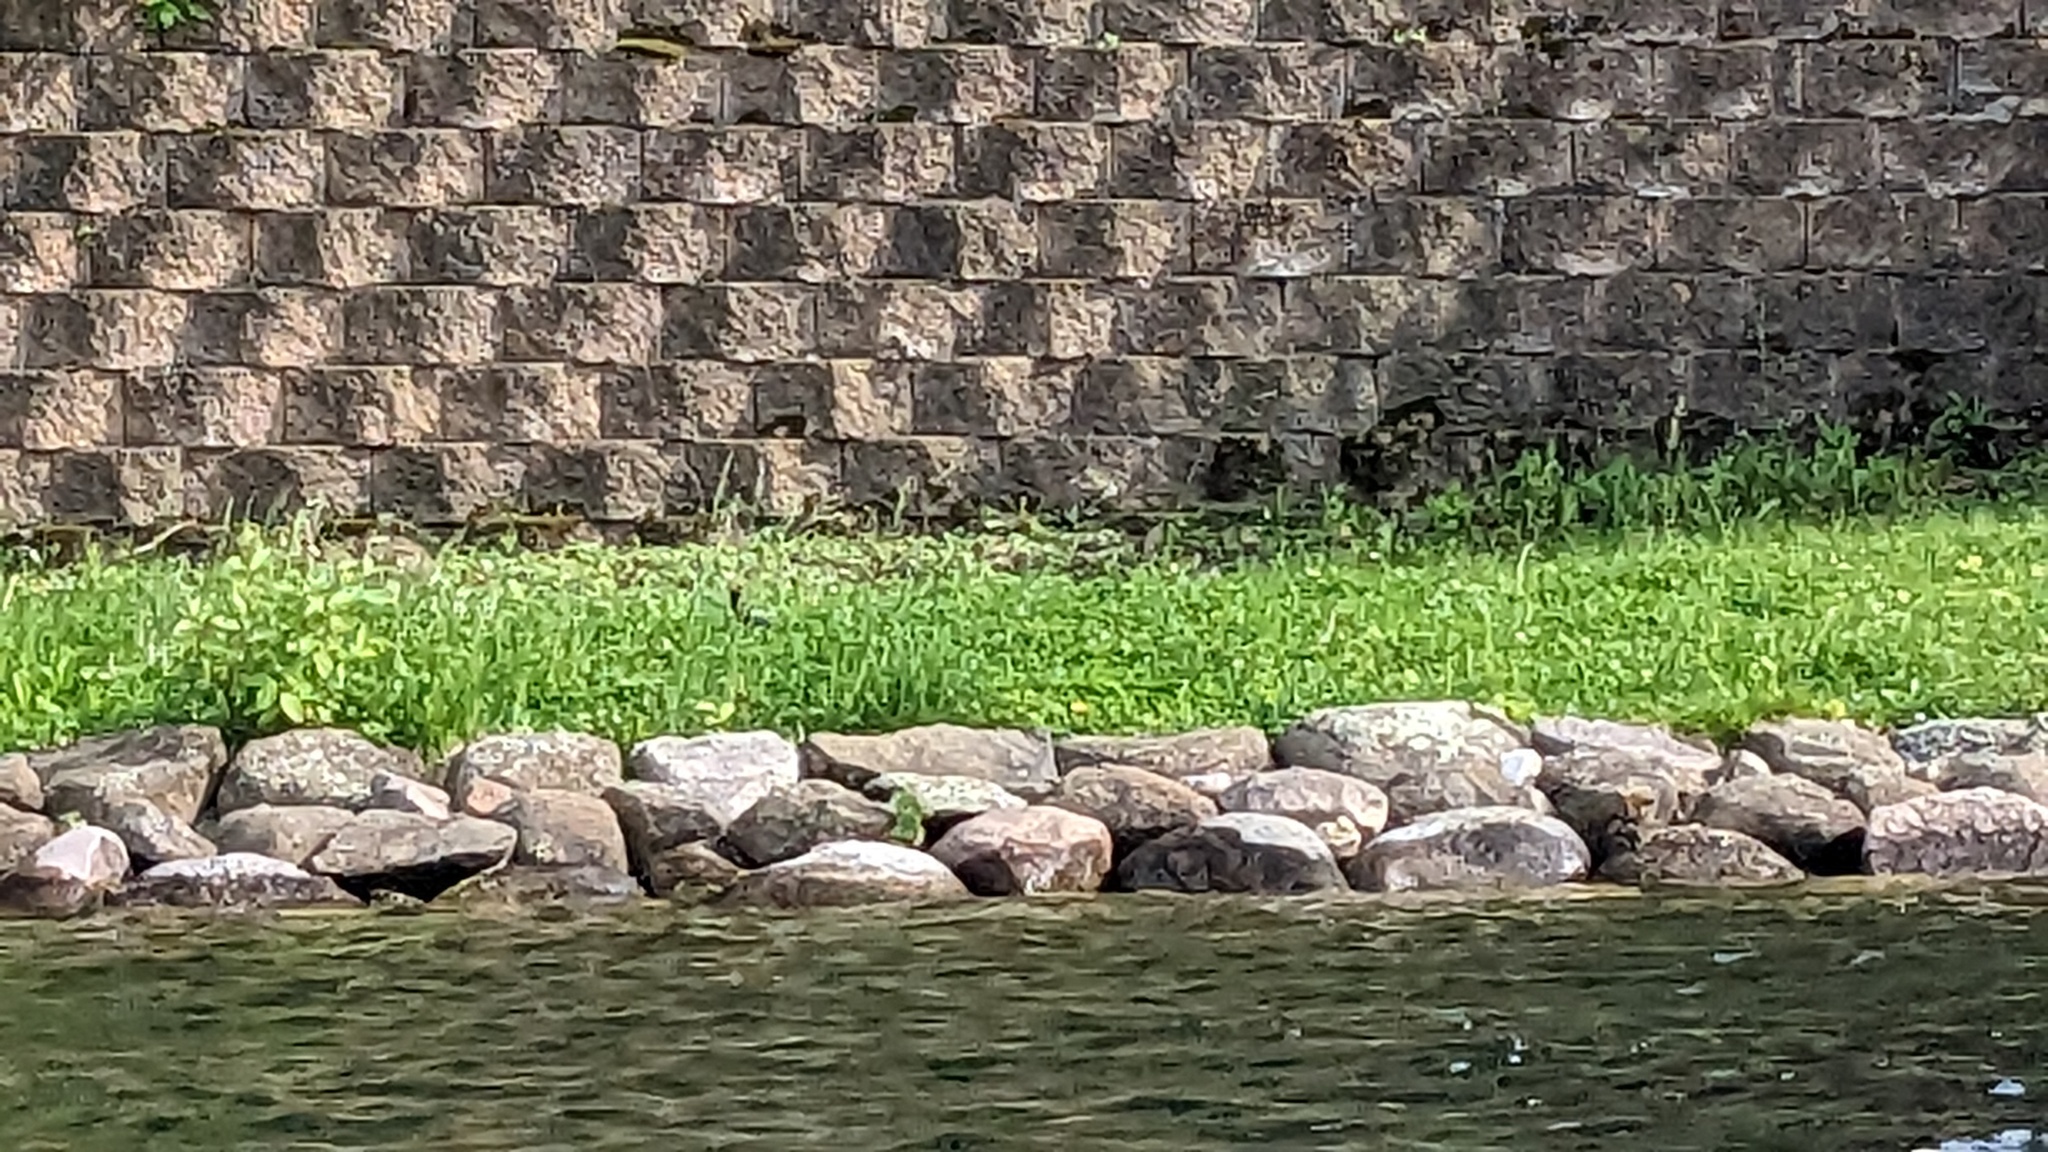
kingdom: Animalia
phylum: Chordata
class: Mammalia
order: Lagomorpha
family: Leporidae
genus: Sylvilagus
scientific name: Sylvilagus floridanus
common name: Eastern cottontail
